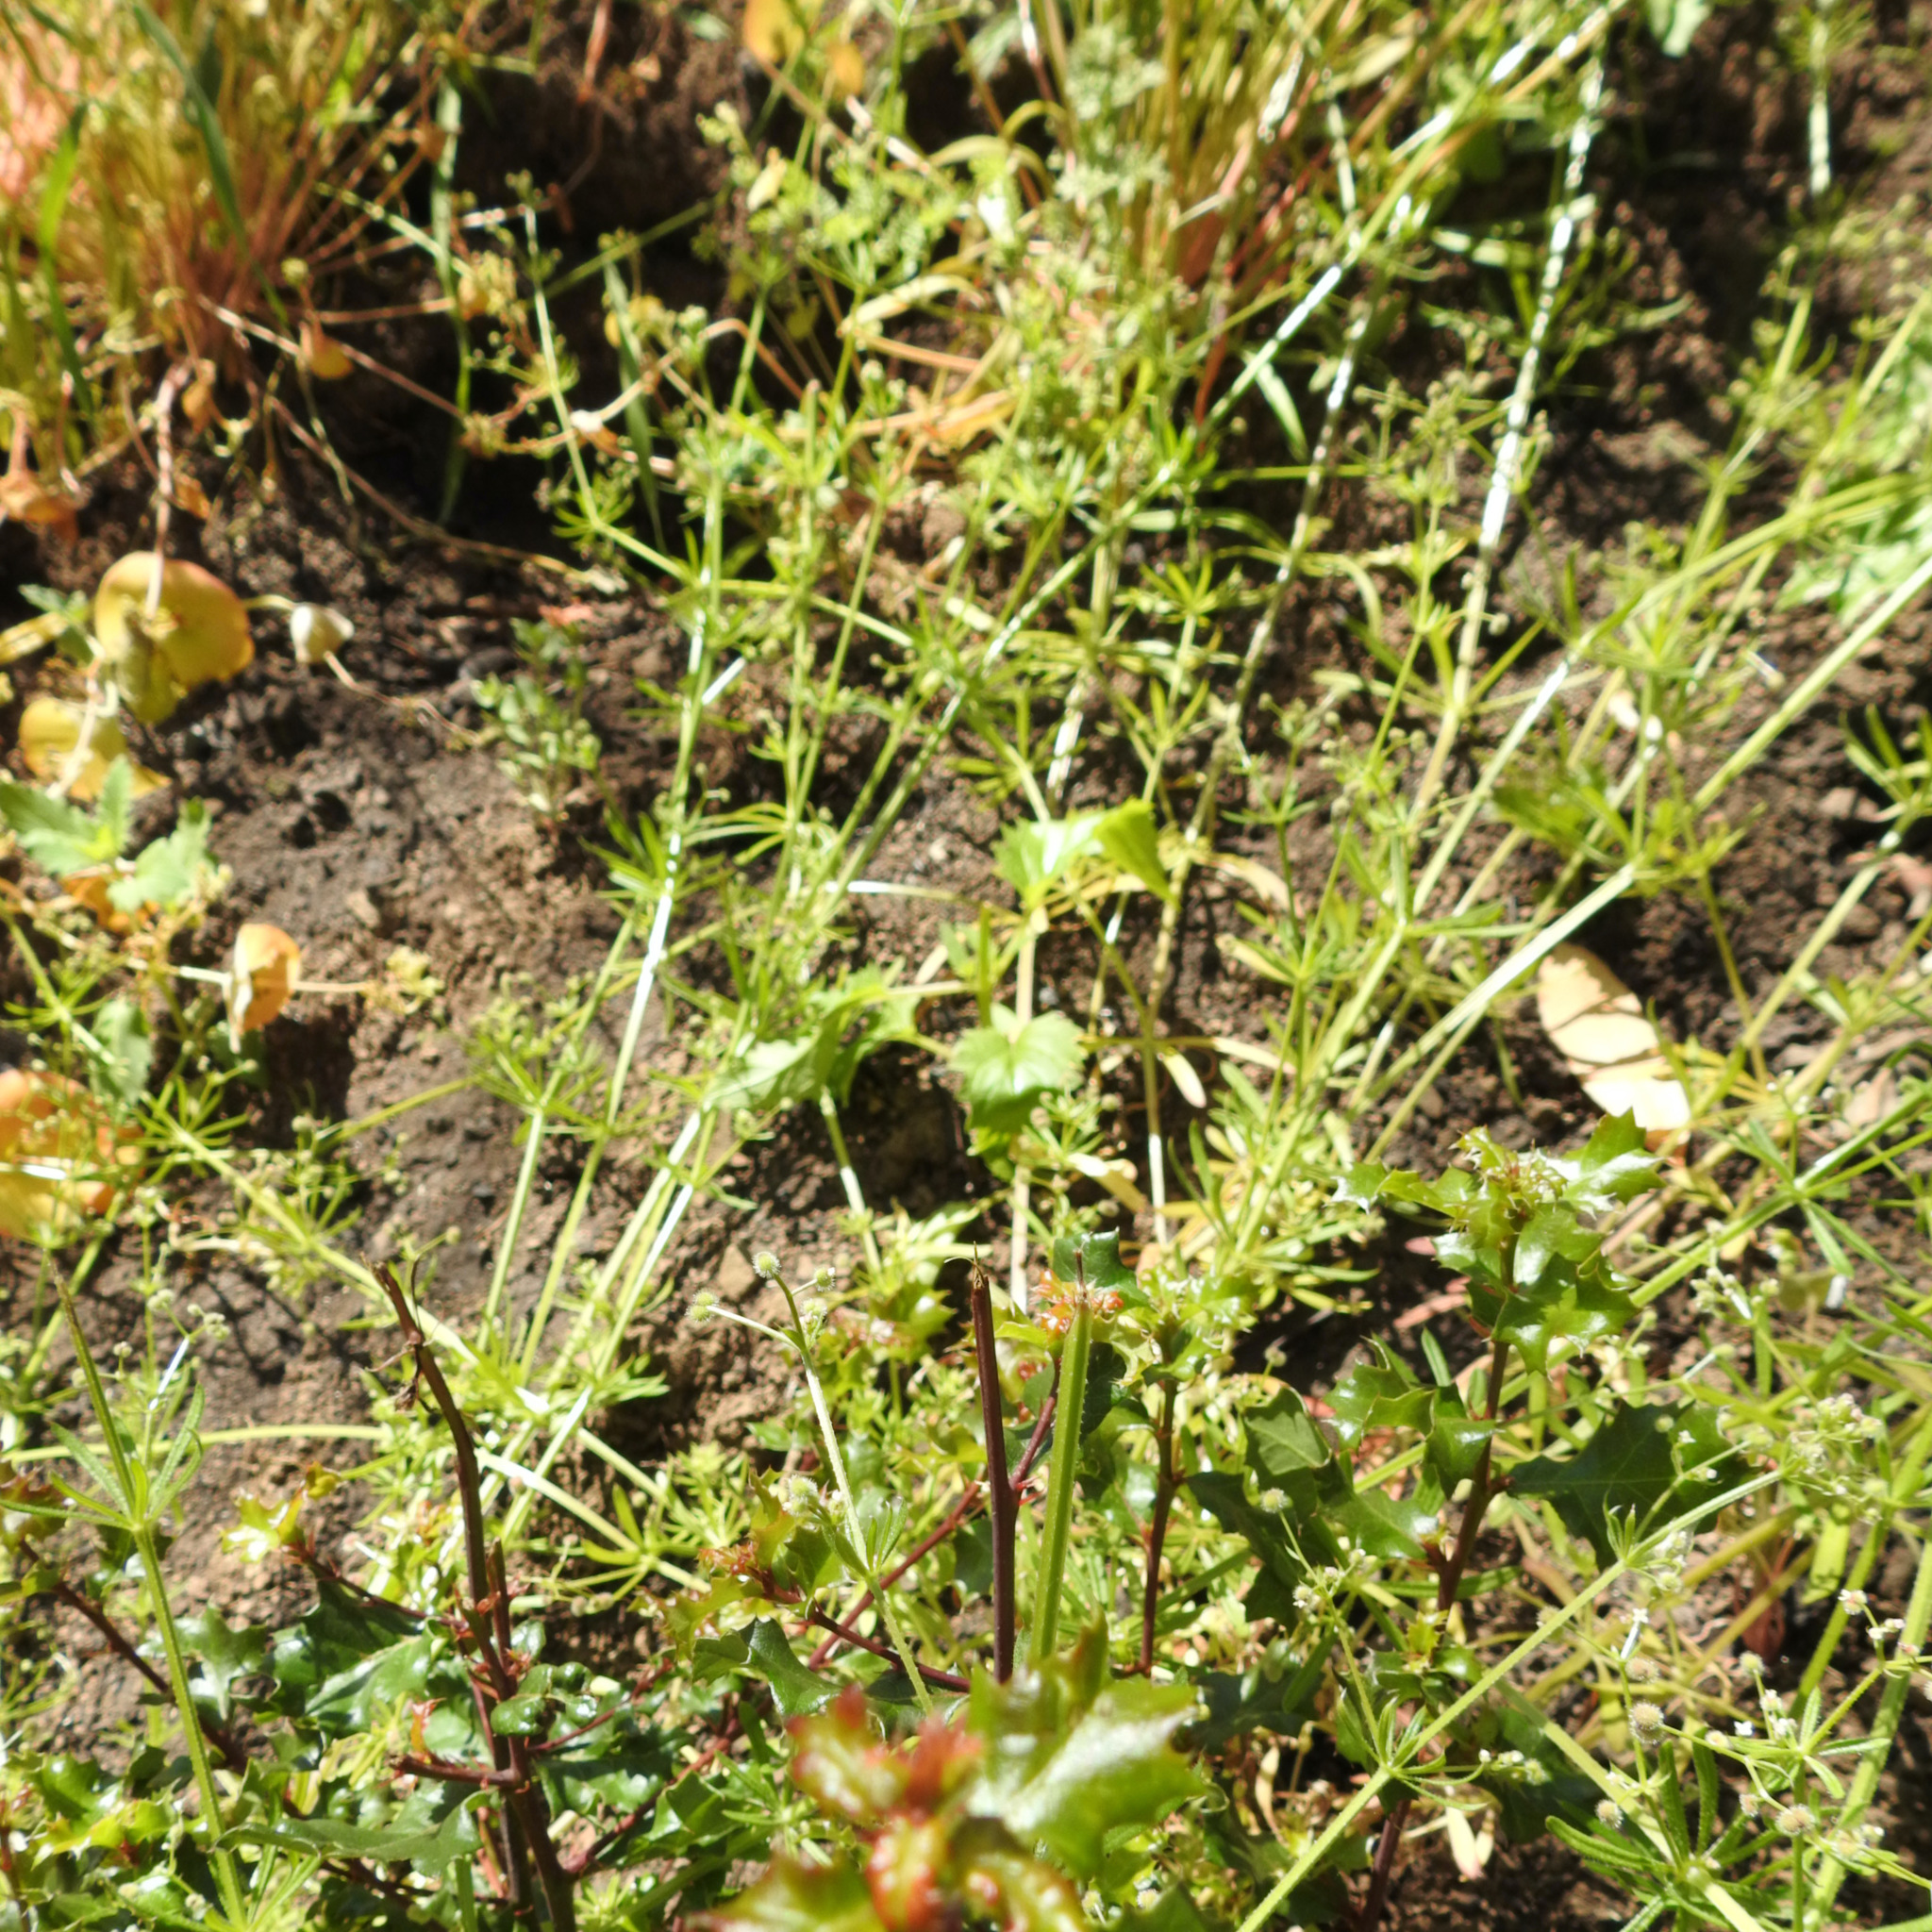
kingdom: Plantae
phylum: Tracheophyta
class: Magnoliopsida
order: Gentianales
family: Rubiaceae
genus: Galium
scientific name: Galium aparine
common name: Cleavers
